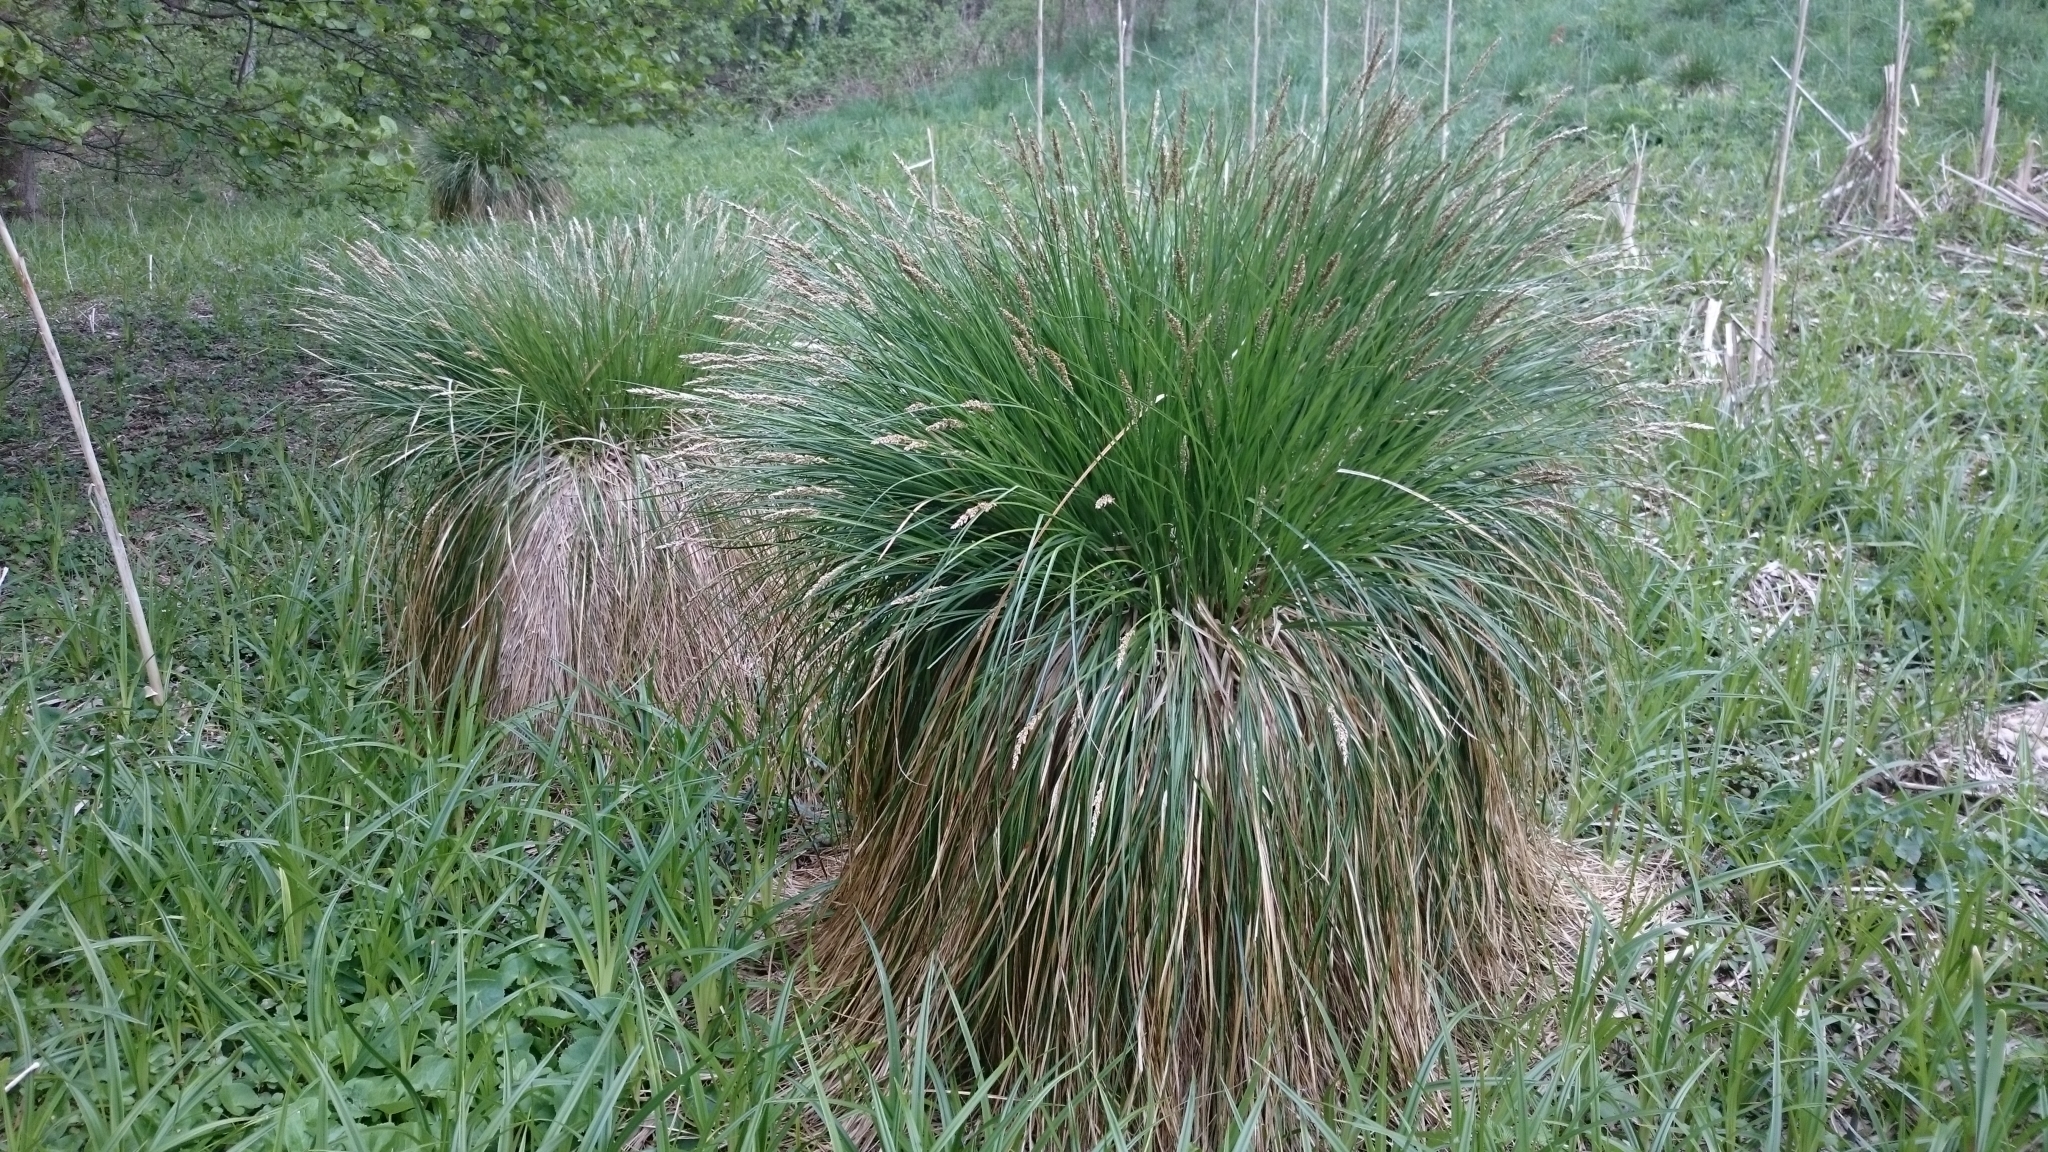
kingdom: Plantae
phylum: Tracheophyta
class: Liliopsida
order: Poales
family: Cyperaceae
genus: Carex
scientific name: Carex paniculata
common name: Greater tussock-sedge
